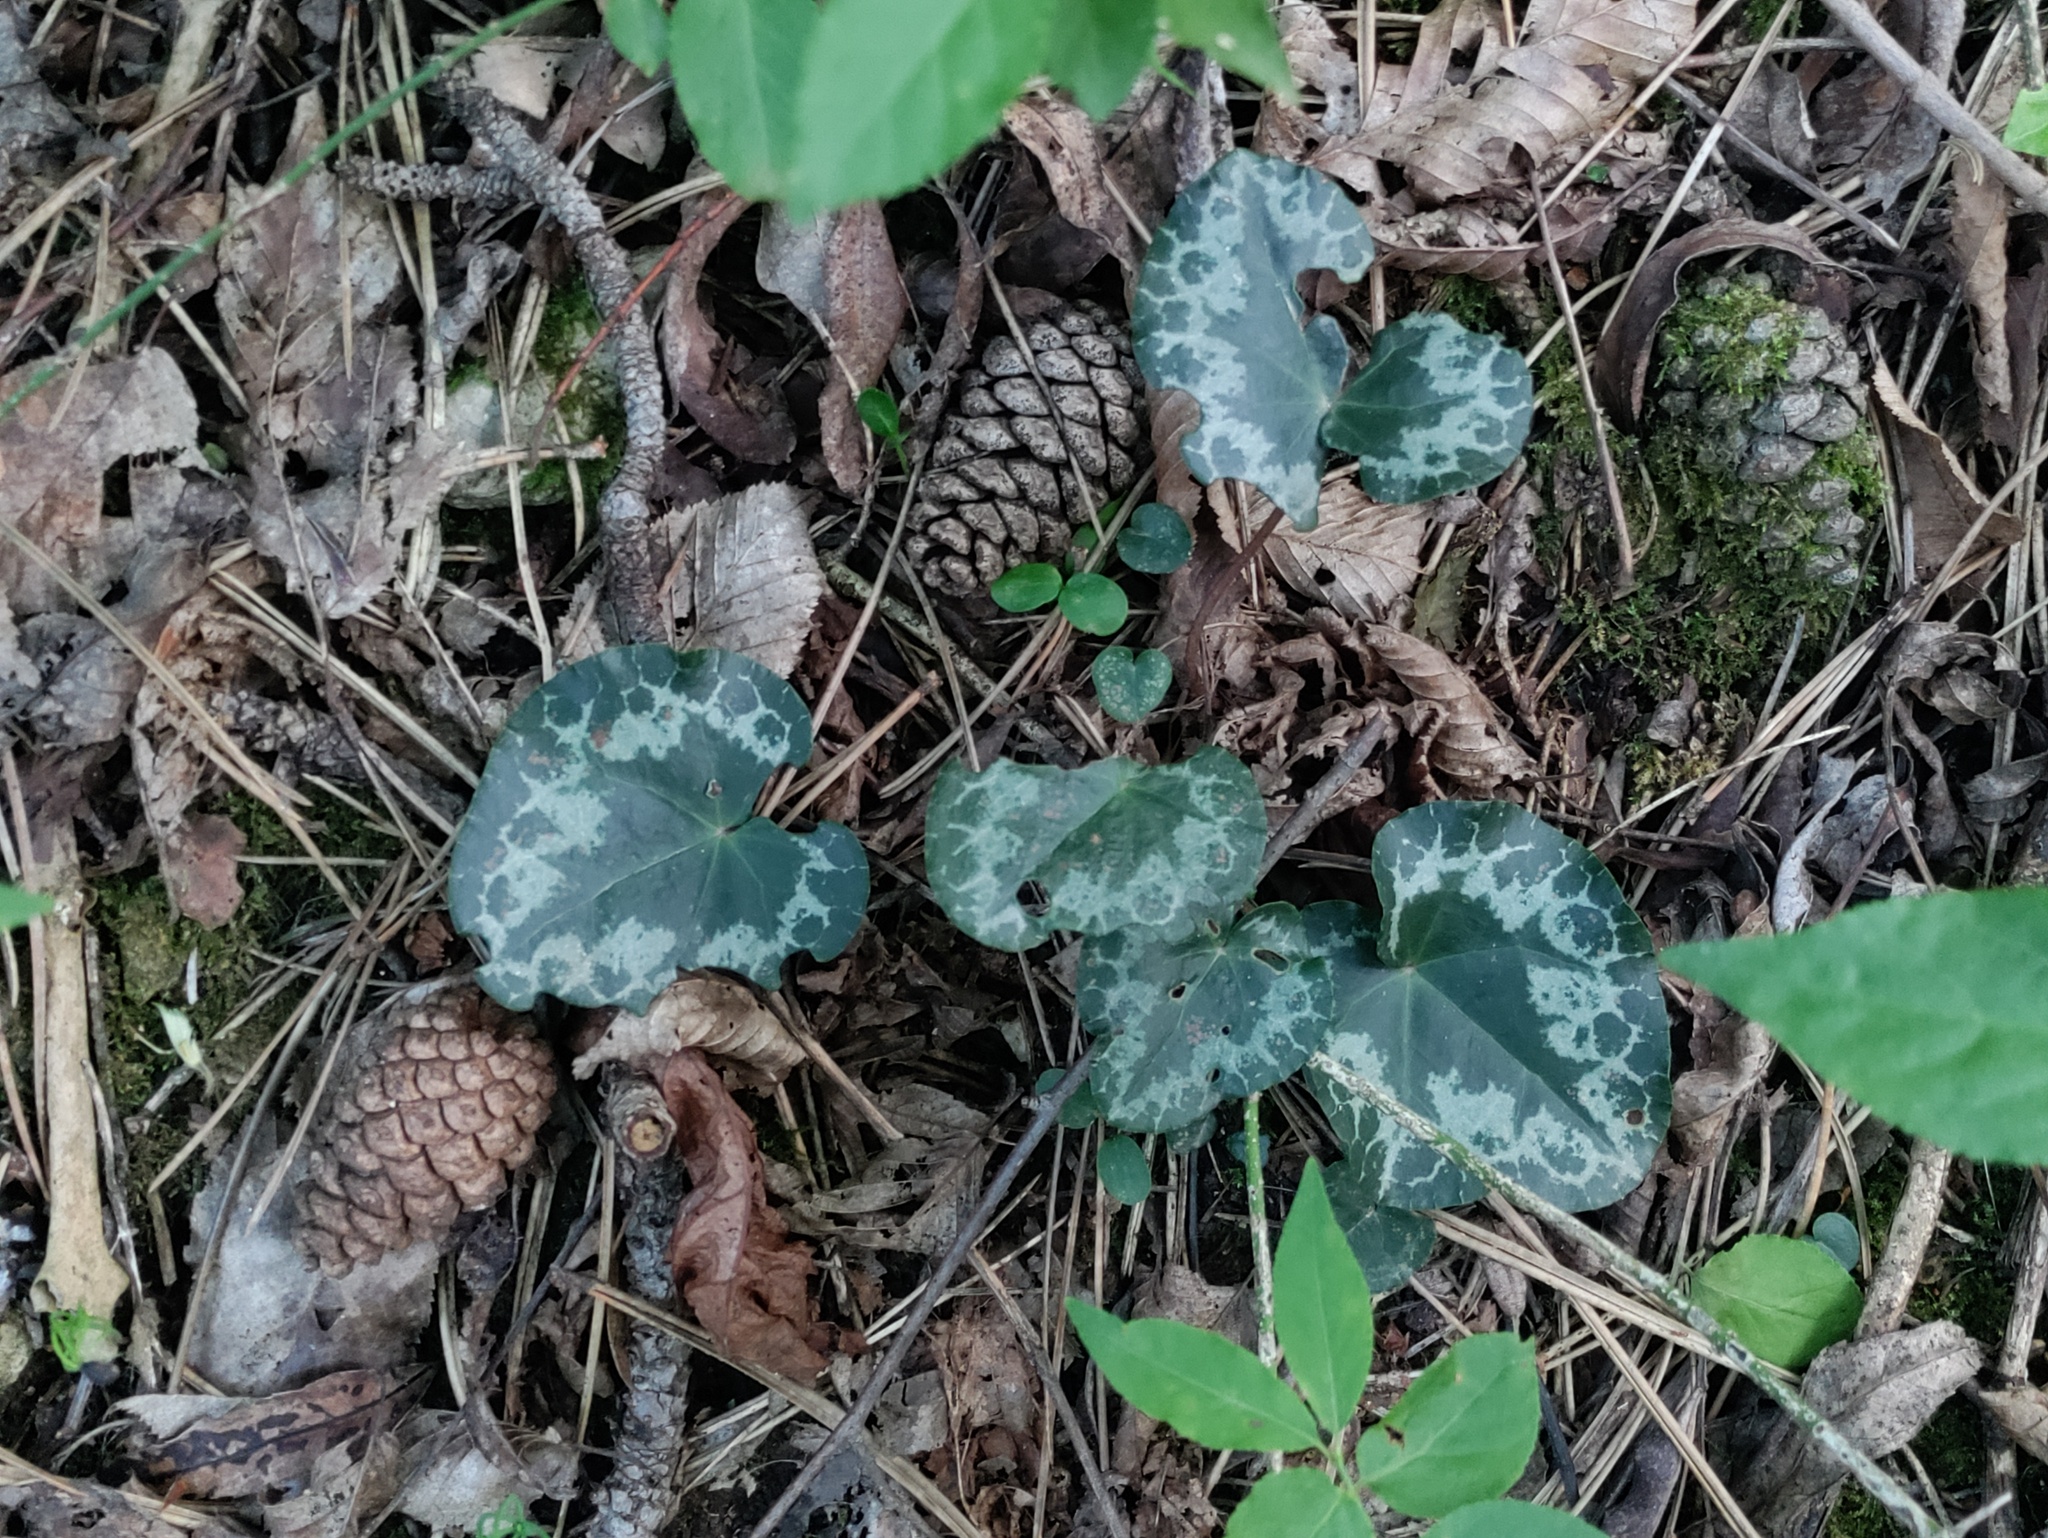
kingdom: Plantae
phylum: Tracheophyta
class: Magnoliopsida
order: Ericales
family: Primulaceae
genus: Cyclamen
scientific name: Cyclamen purpurascens
